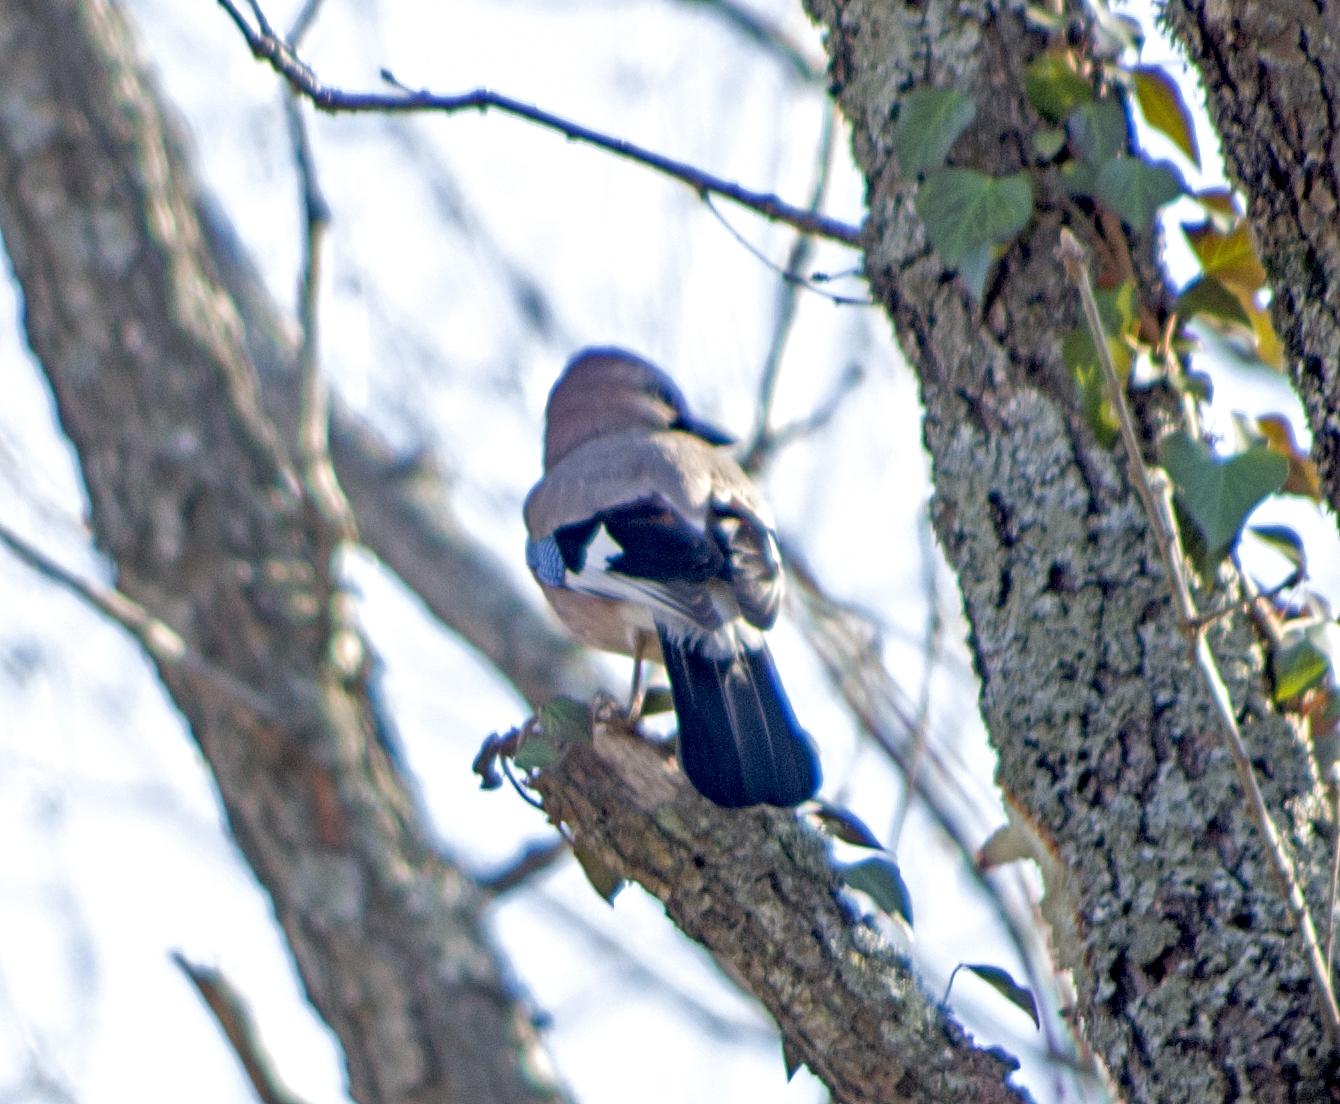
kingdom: Animalia
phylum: Chordata
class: Aves
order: Passeriformes
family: Corvidae
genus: Garrulus
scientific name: Garrulus glandarius
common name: Eurasian jay
